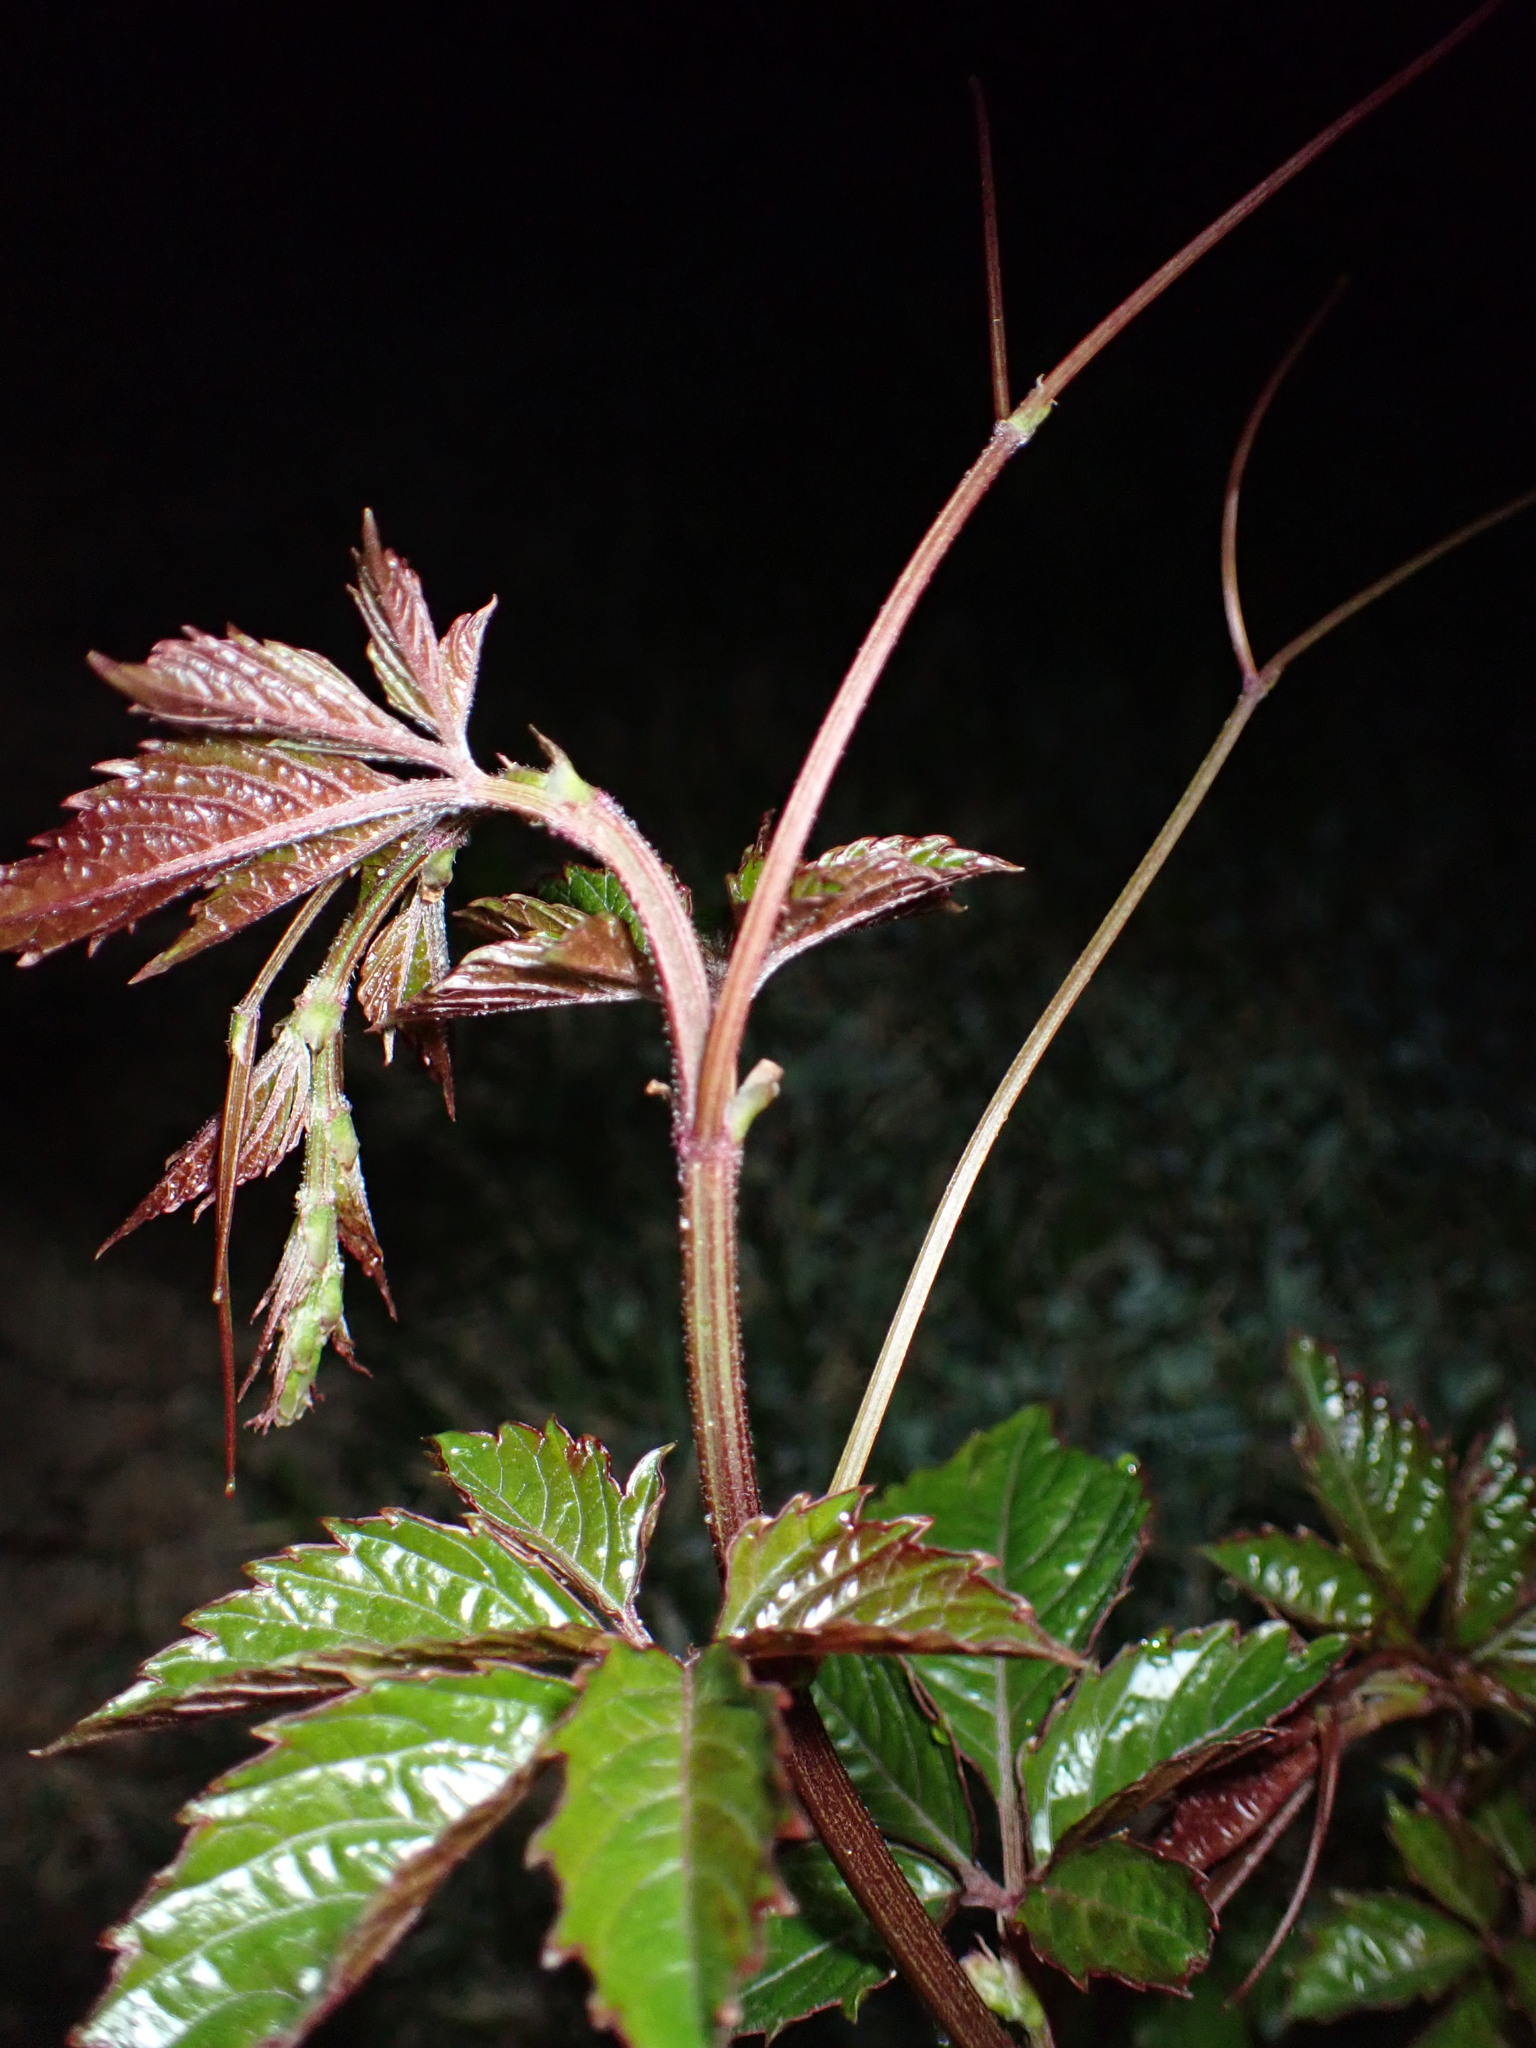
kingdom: Plantae
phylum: Tracheophyta
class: Magnoliopsida
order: Vitales
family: Vitaceae
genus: Causonis
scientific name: Causonis japonica
